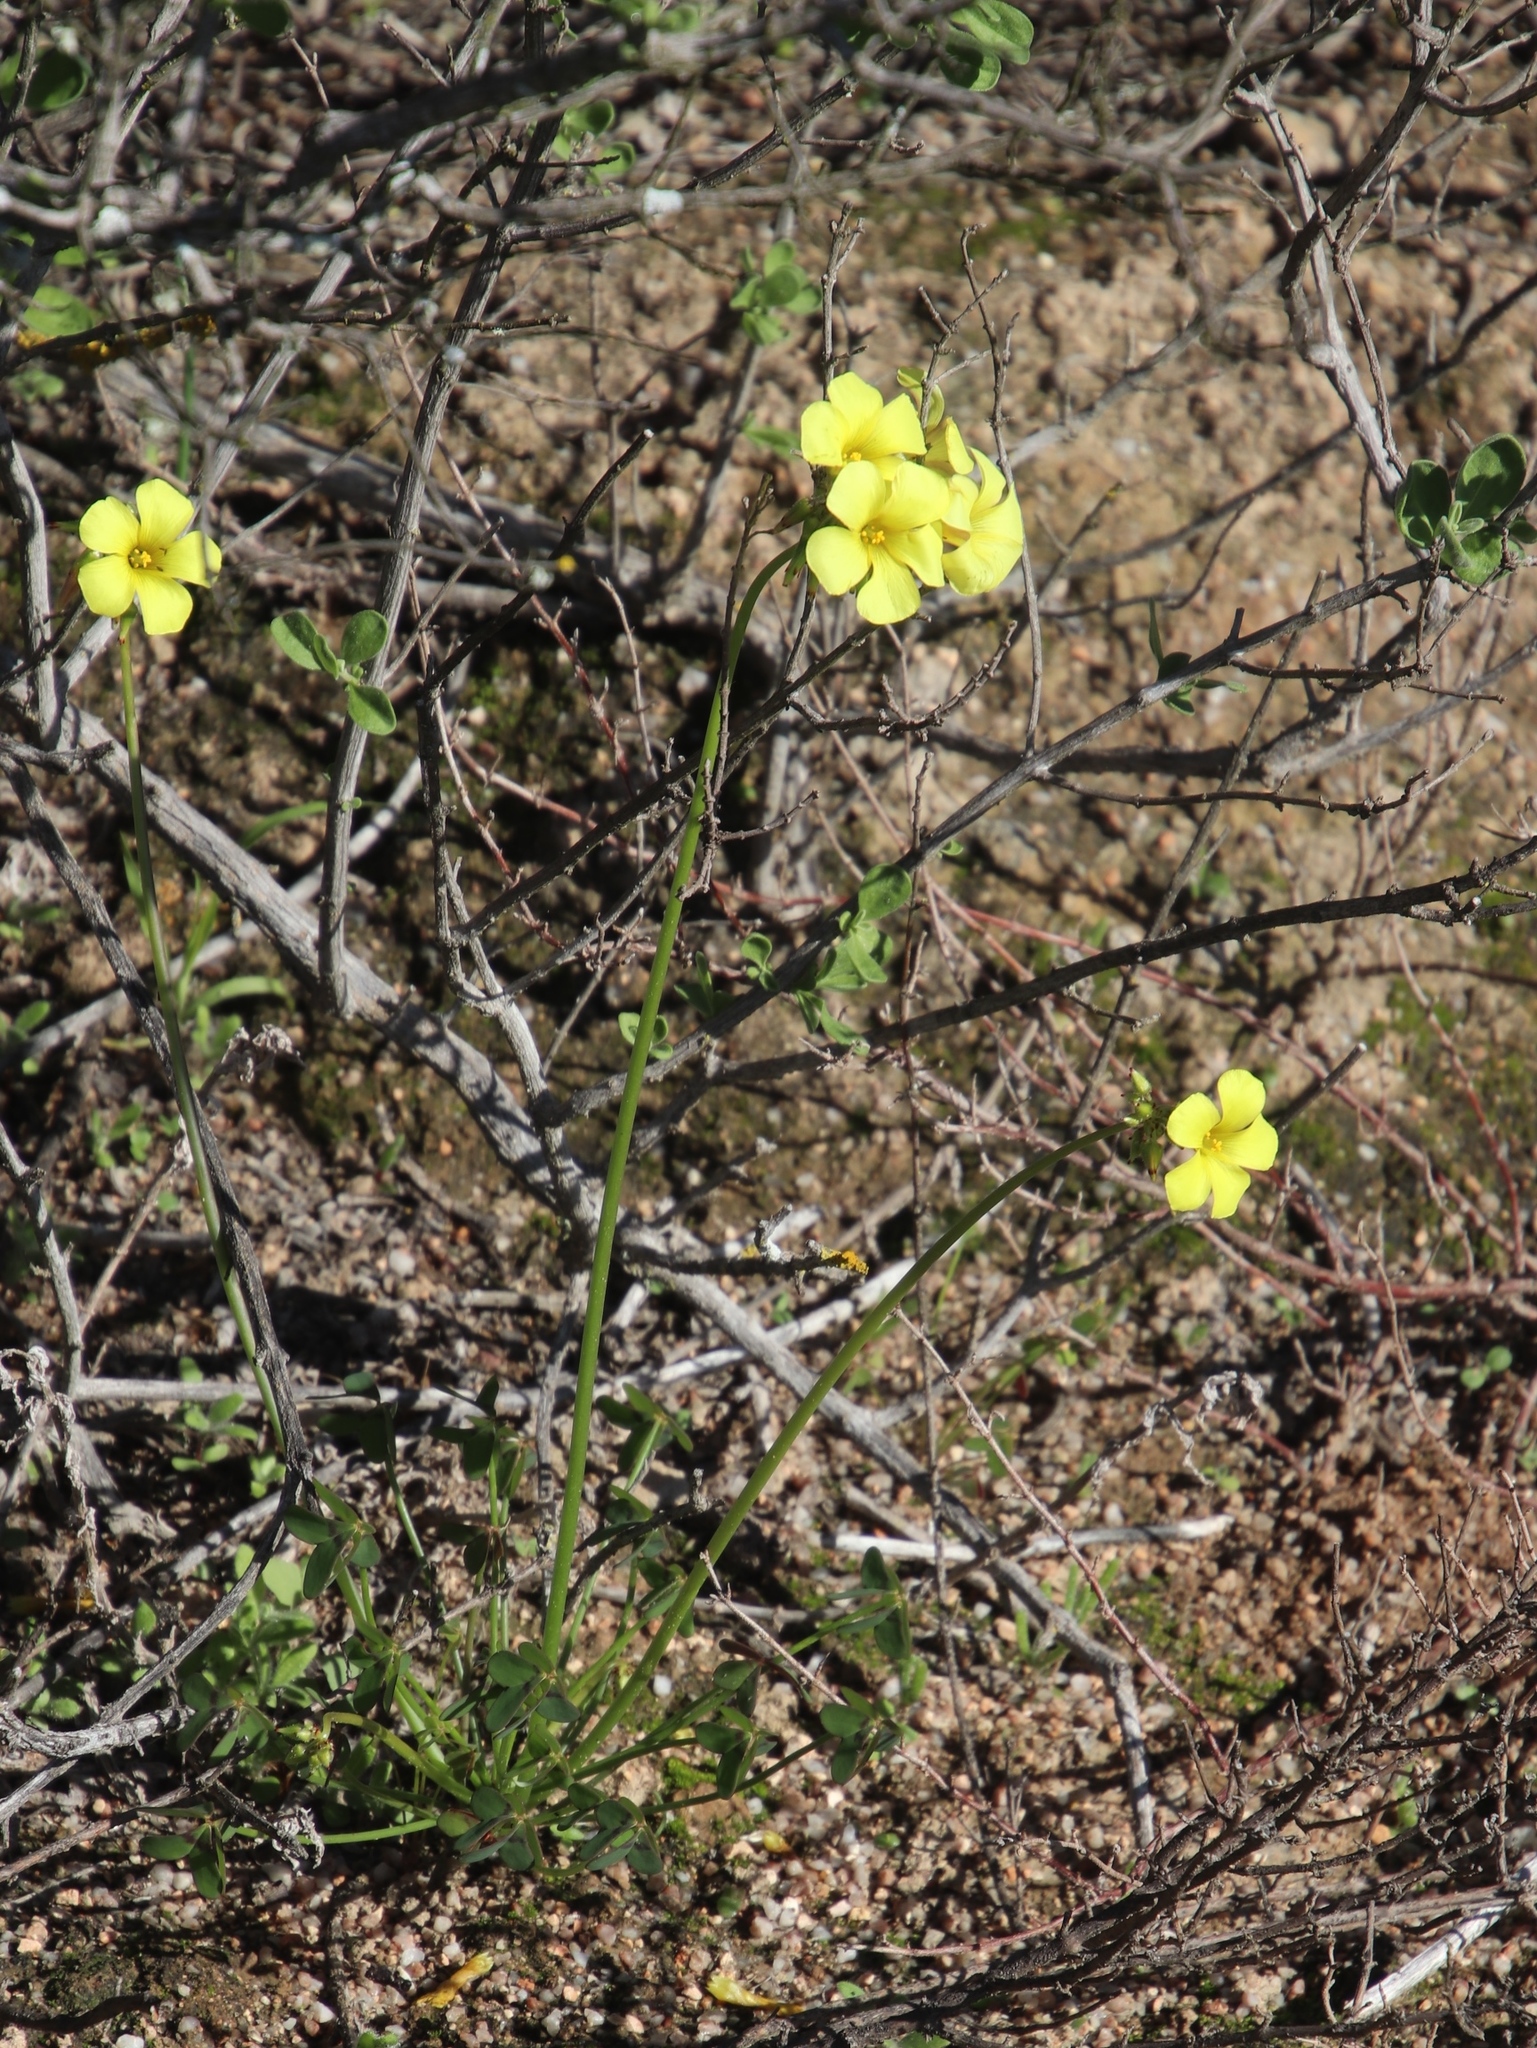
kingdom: Plantae
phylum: Tracheophyta
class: Magnoliopsida
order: Oxalidales
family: Oxalidaceae
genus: Oxalis
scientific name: Oxalis pes-caprae
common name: Bermuda-buttercup
